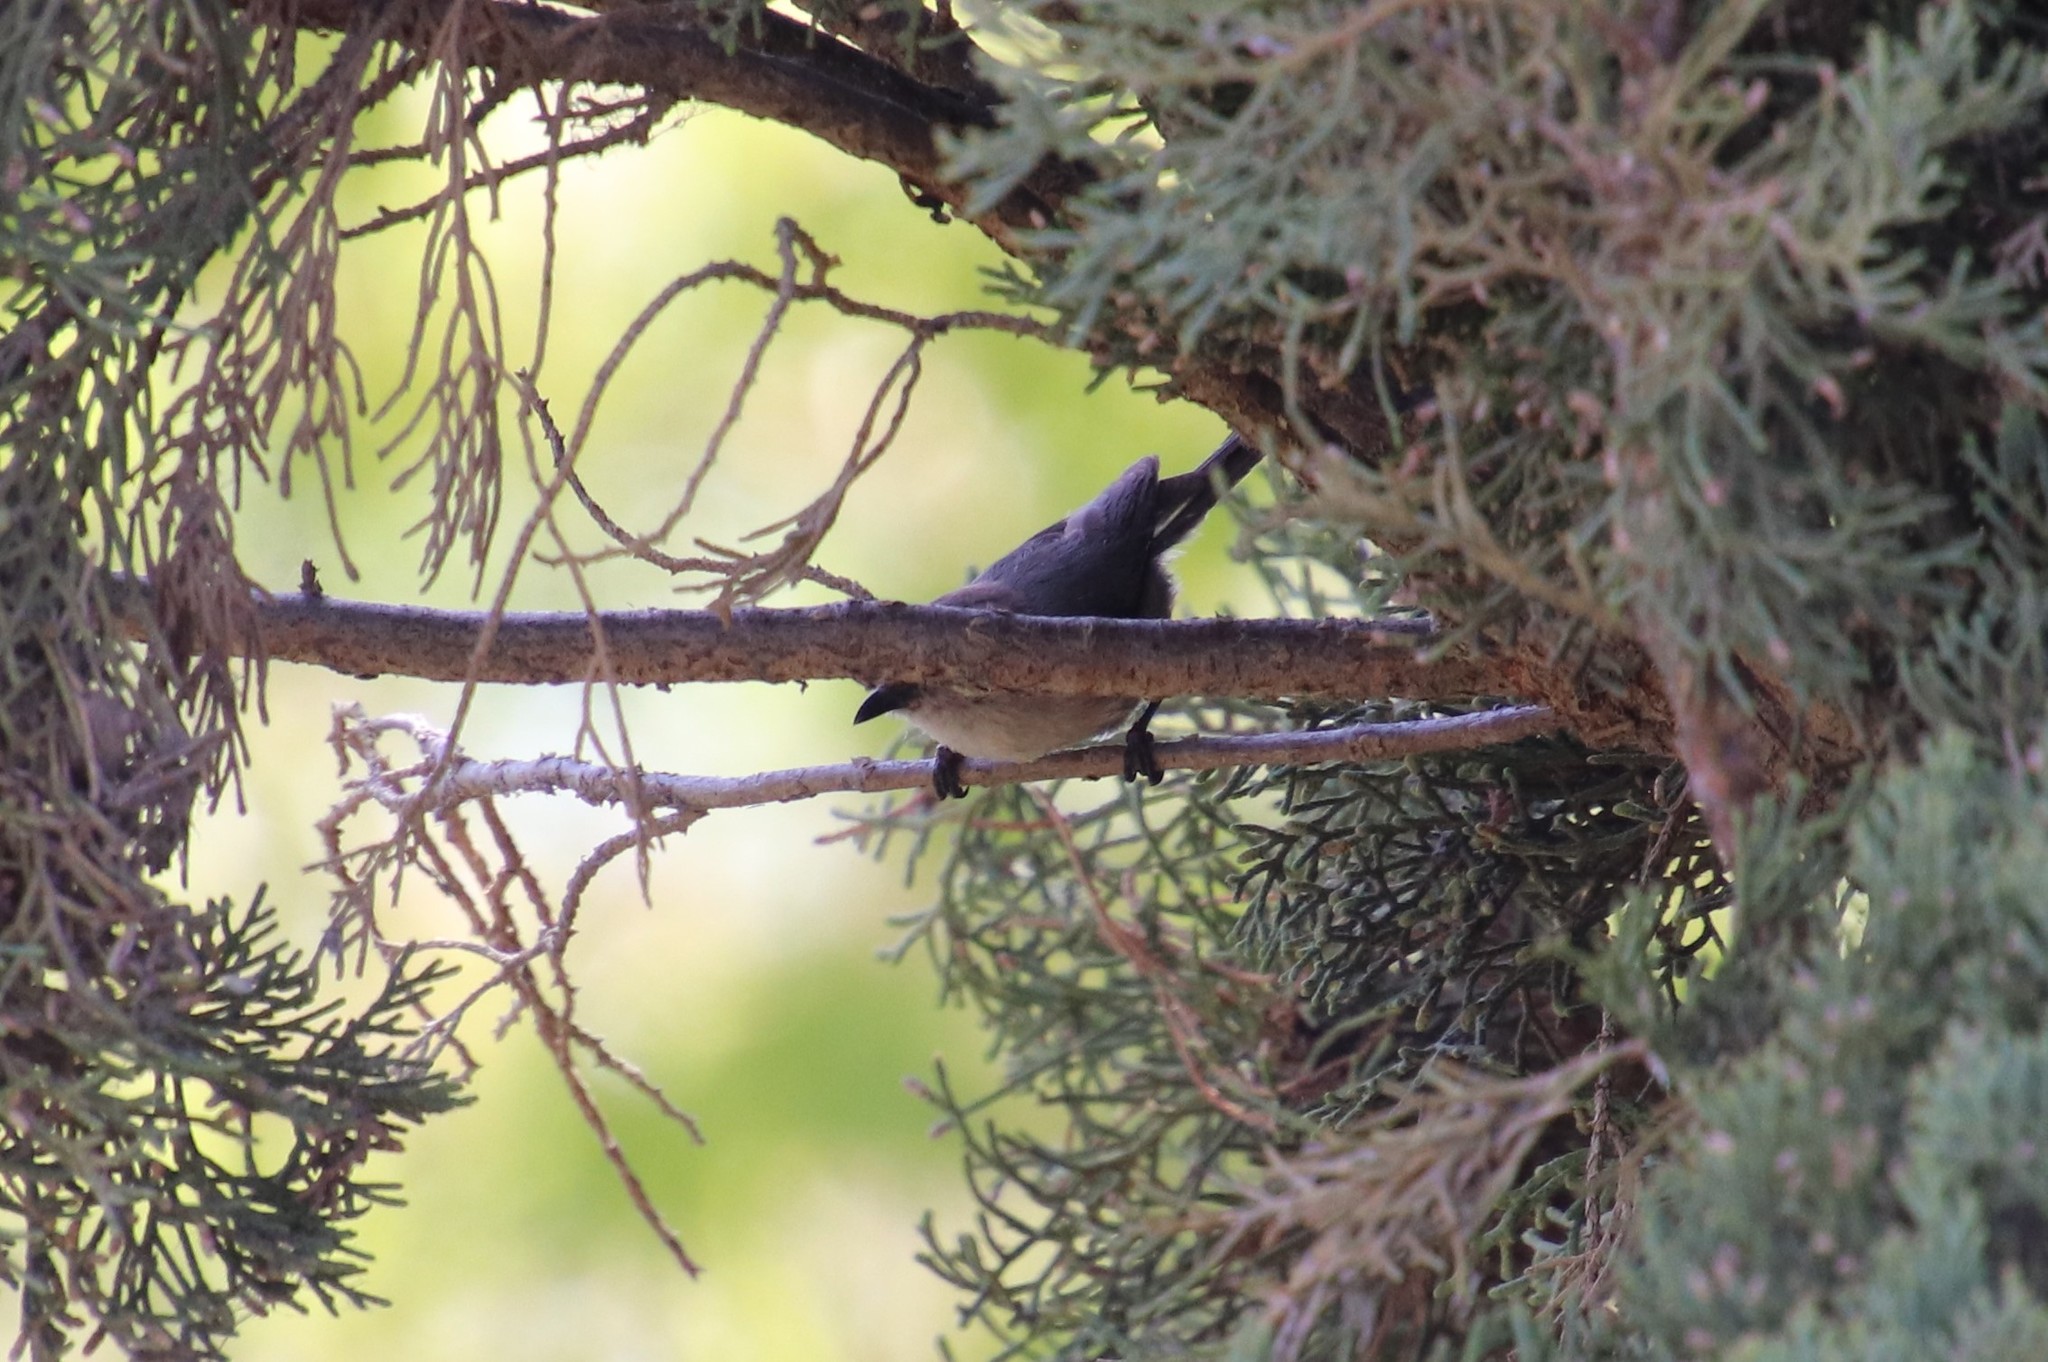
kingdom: Animalia
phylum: Chordata
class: Aves
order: Passeriformes
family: Aegithalidae
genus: Psaltriparus
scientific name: Psaltriparus minimus
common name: American bushtit
